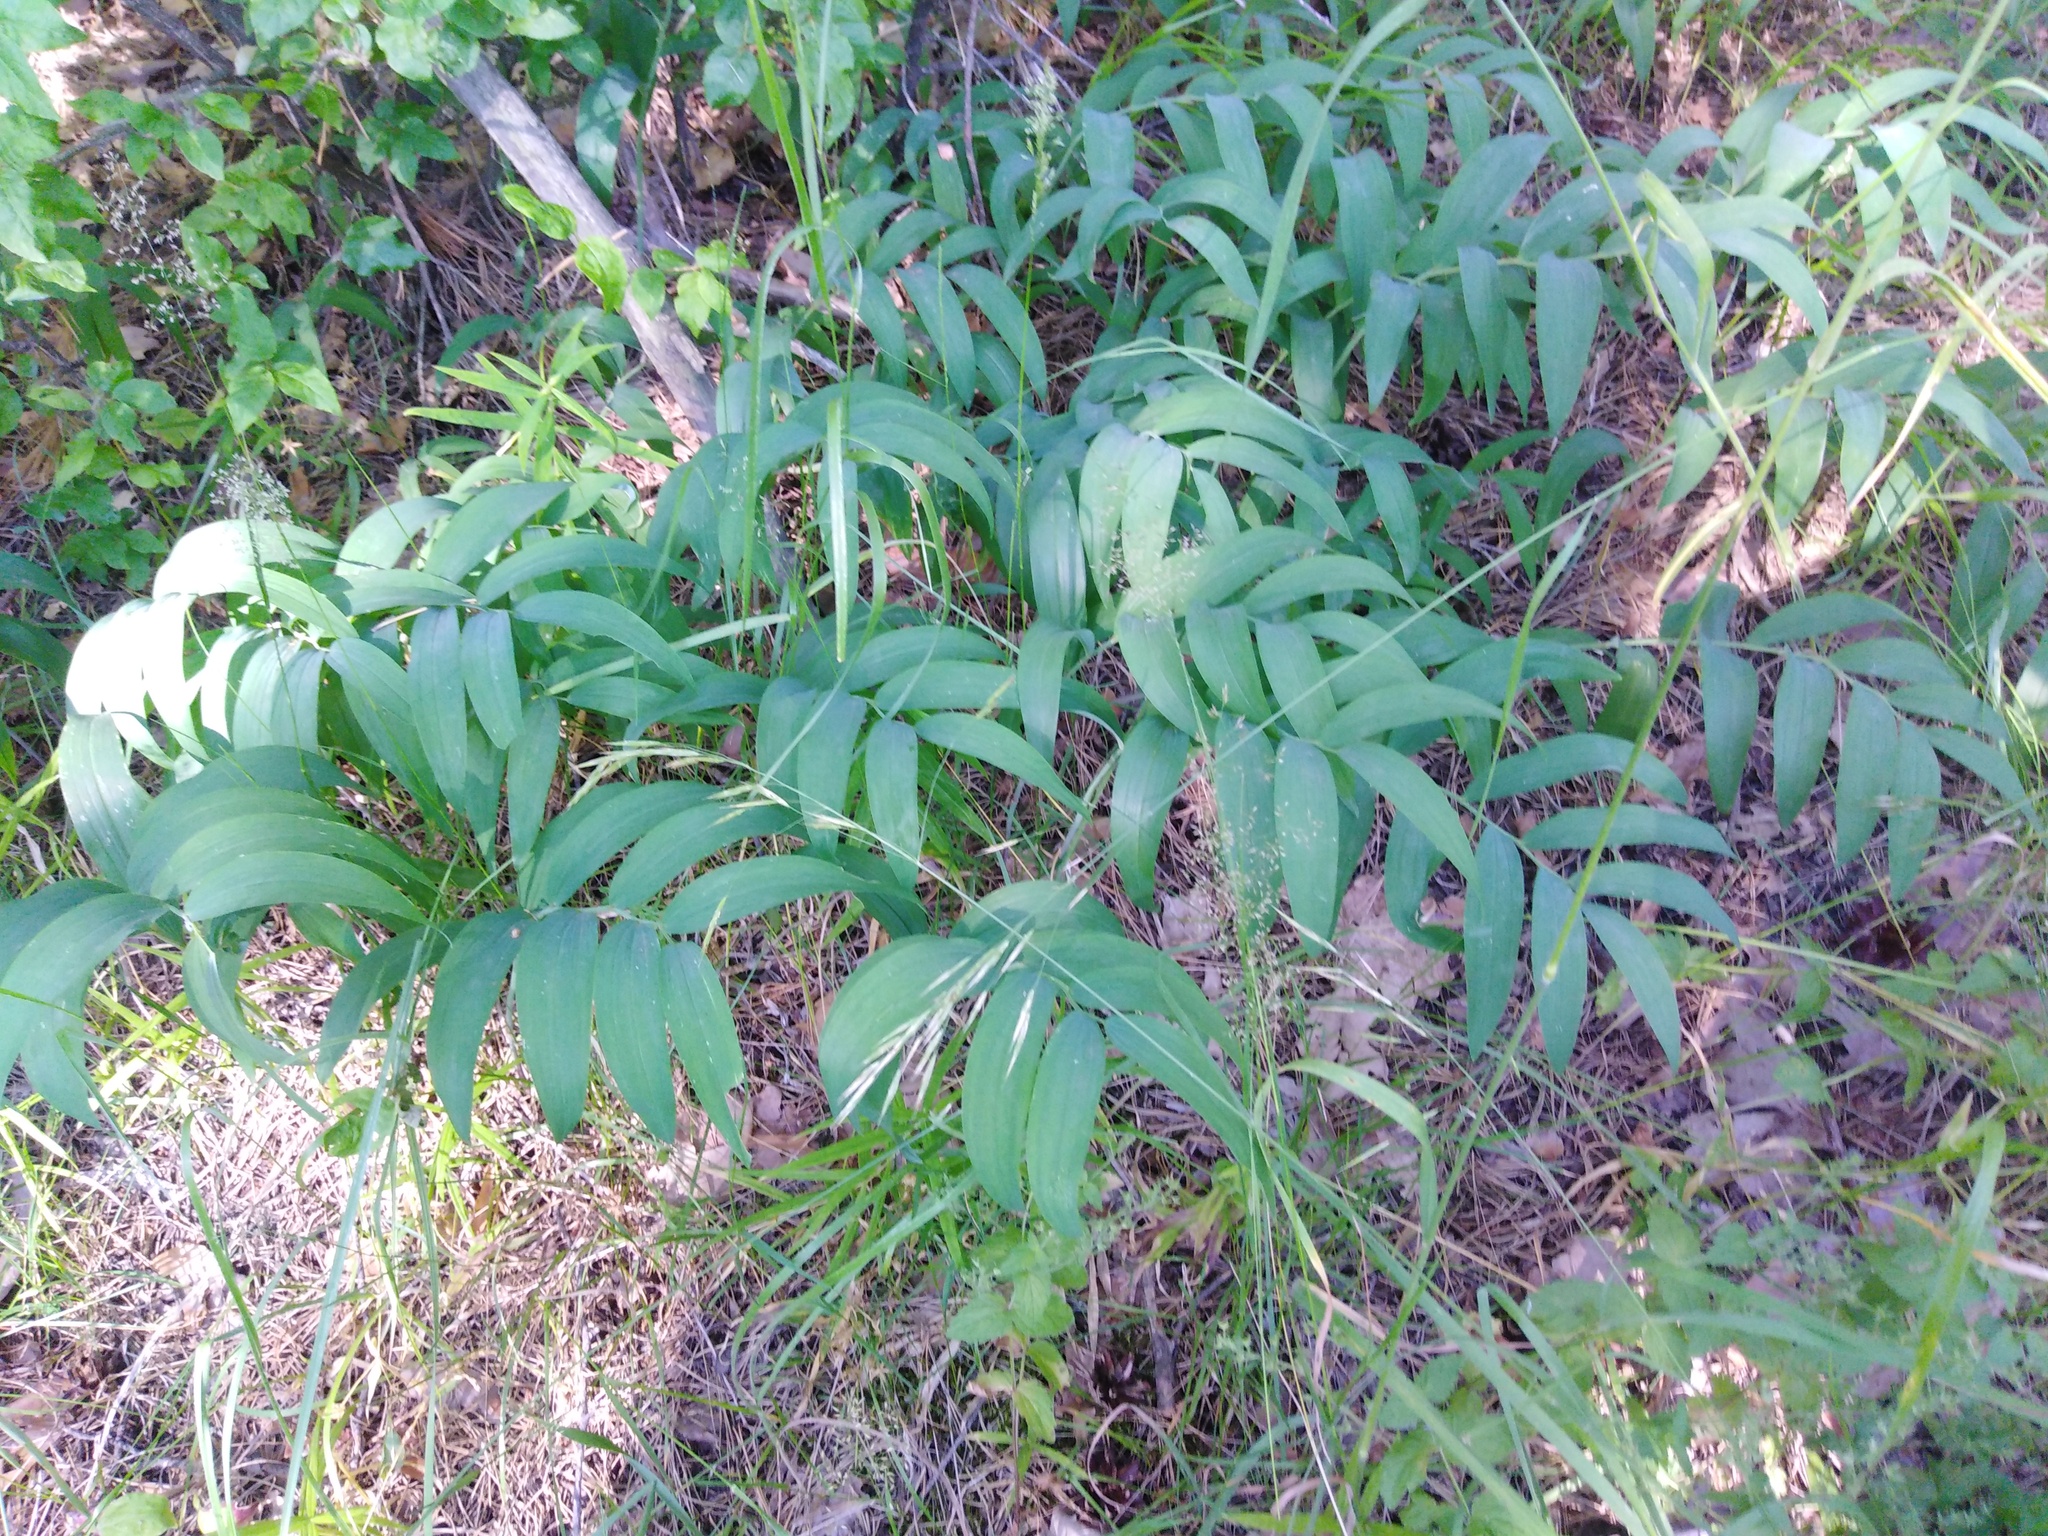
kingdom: Plantae
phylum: Tracheophyta
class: Liliopsida
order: Asparagales
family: Asparagaceae
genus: Polygonatum
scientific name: Polygonatum odoratum
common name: Angular solomon's-seal
